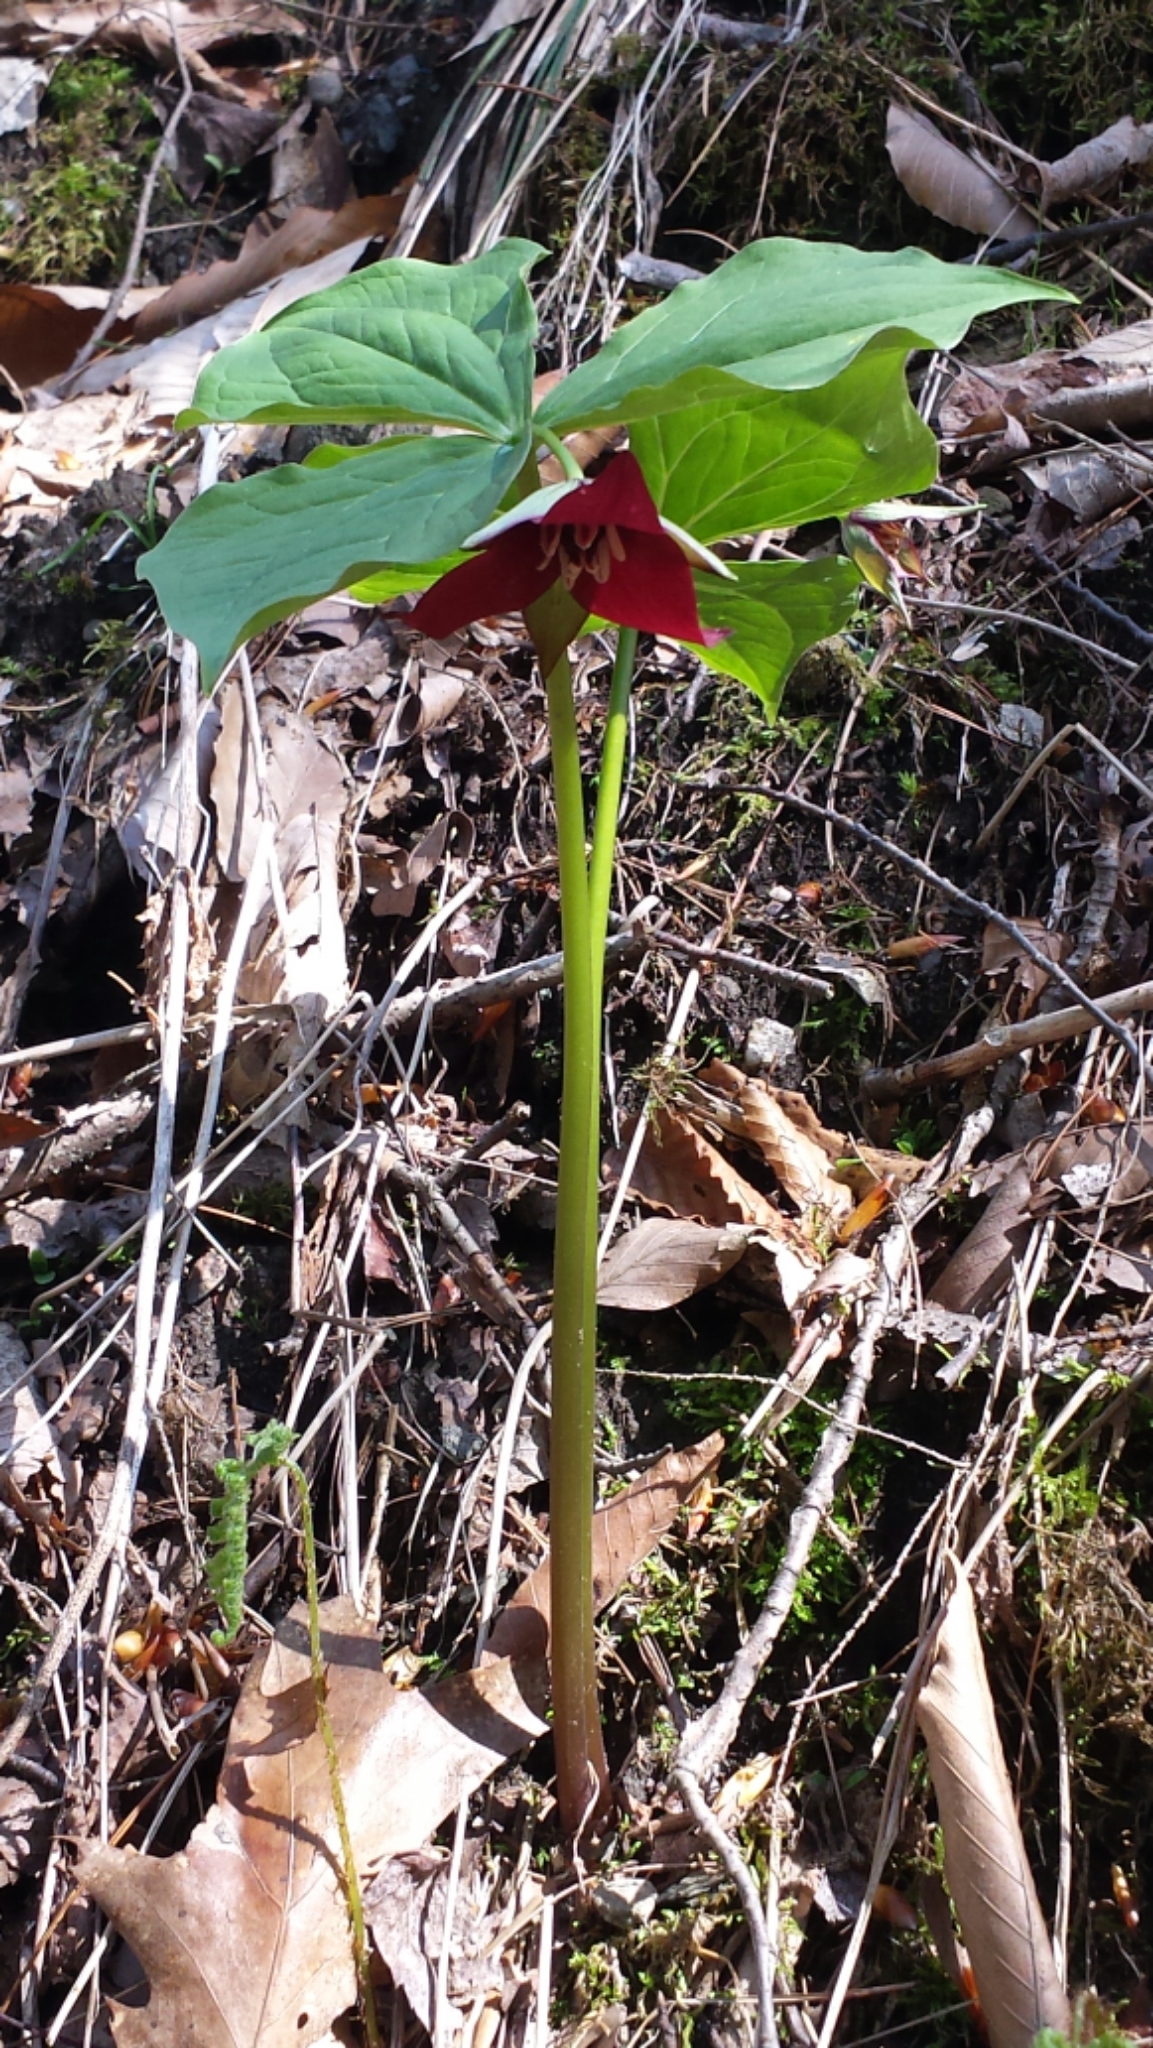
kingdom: Plantae
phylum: Tracheophyta
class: Liliopsida
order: Liliales
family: Melanthiaceae
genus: Trillium
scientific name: Trillium erectum
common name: Purple trillium
